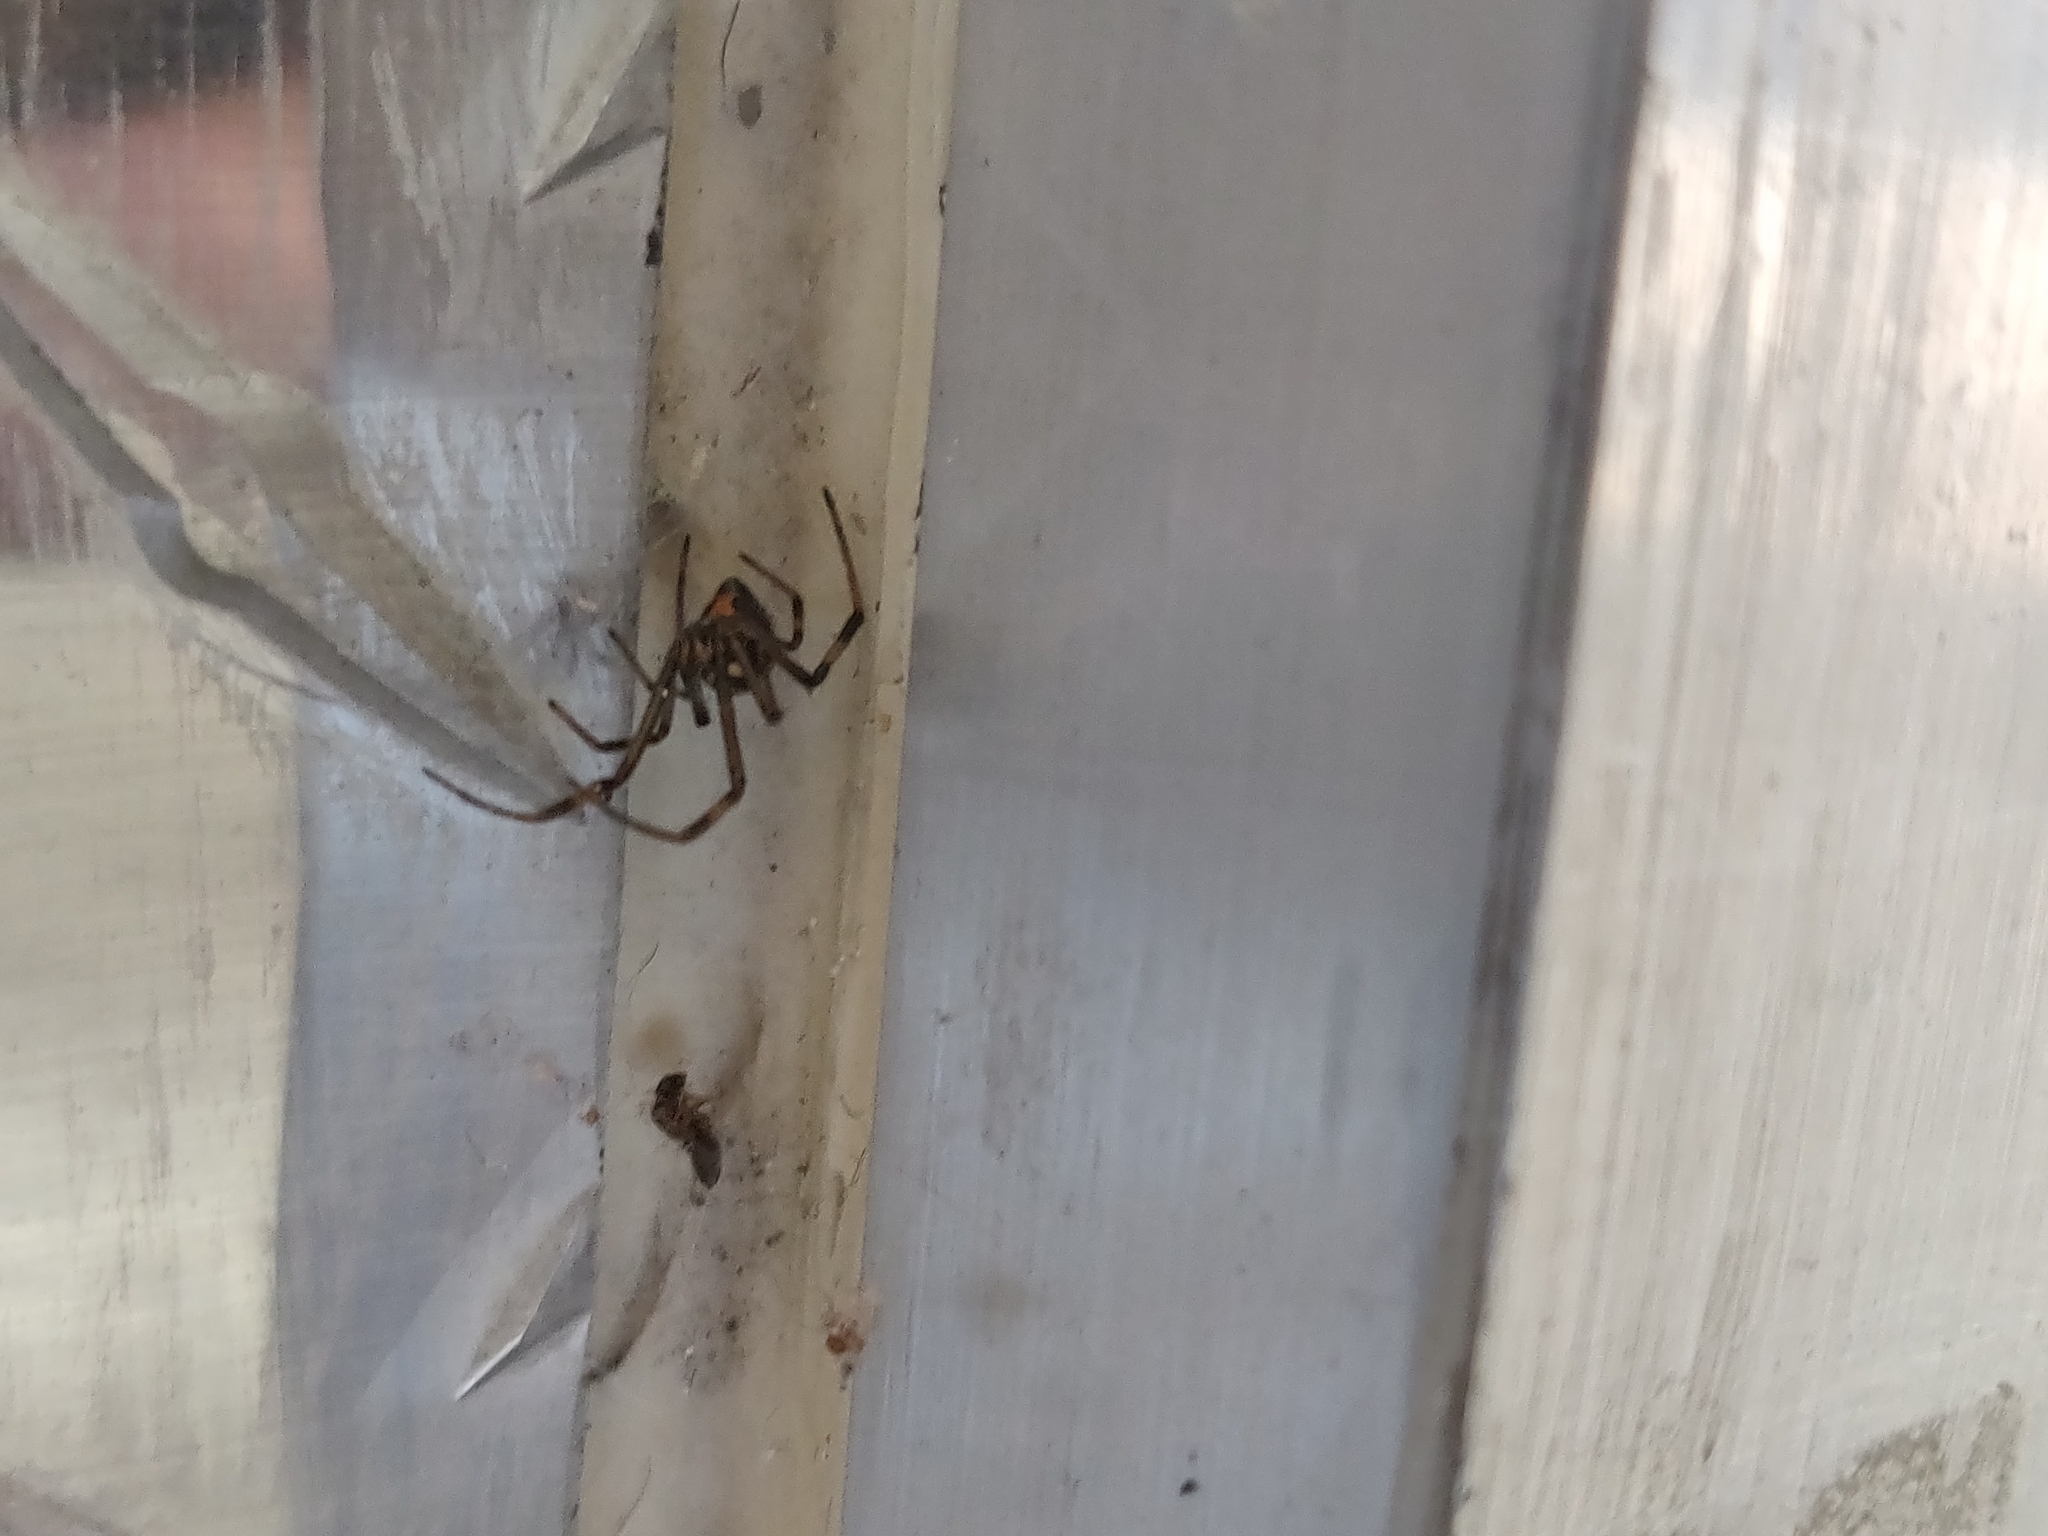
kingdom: Animalia
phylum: Arthropoda
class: Arachnida
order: Araneae
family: Theridiidae
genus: Latrodectus
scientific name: Latrodectus hesperus
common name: Western black widow
